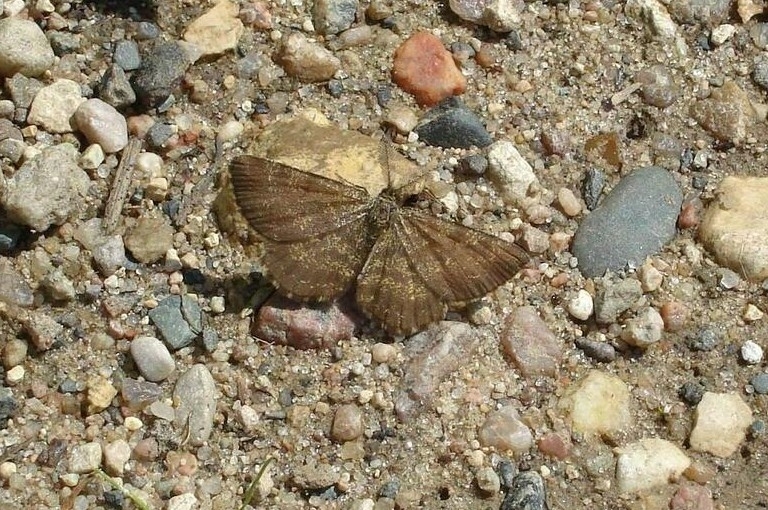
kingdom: Animalia
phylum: Arthropoda
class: Insecta
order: Lepidoptera
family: Geometridae
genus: Ematurga
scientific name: Ematurga atomaria
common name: Common heath
